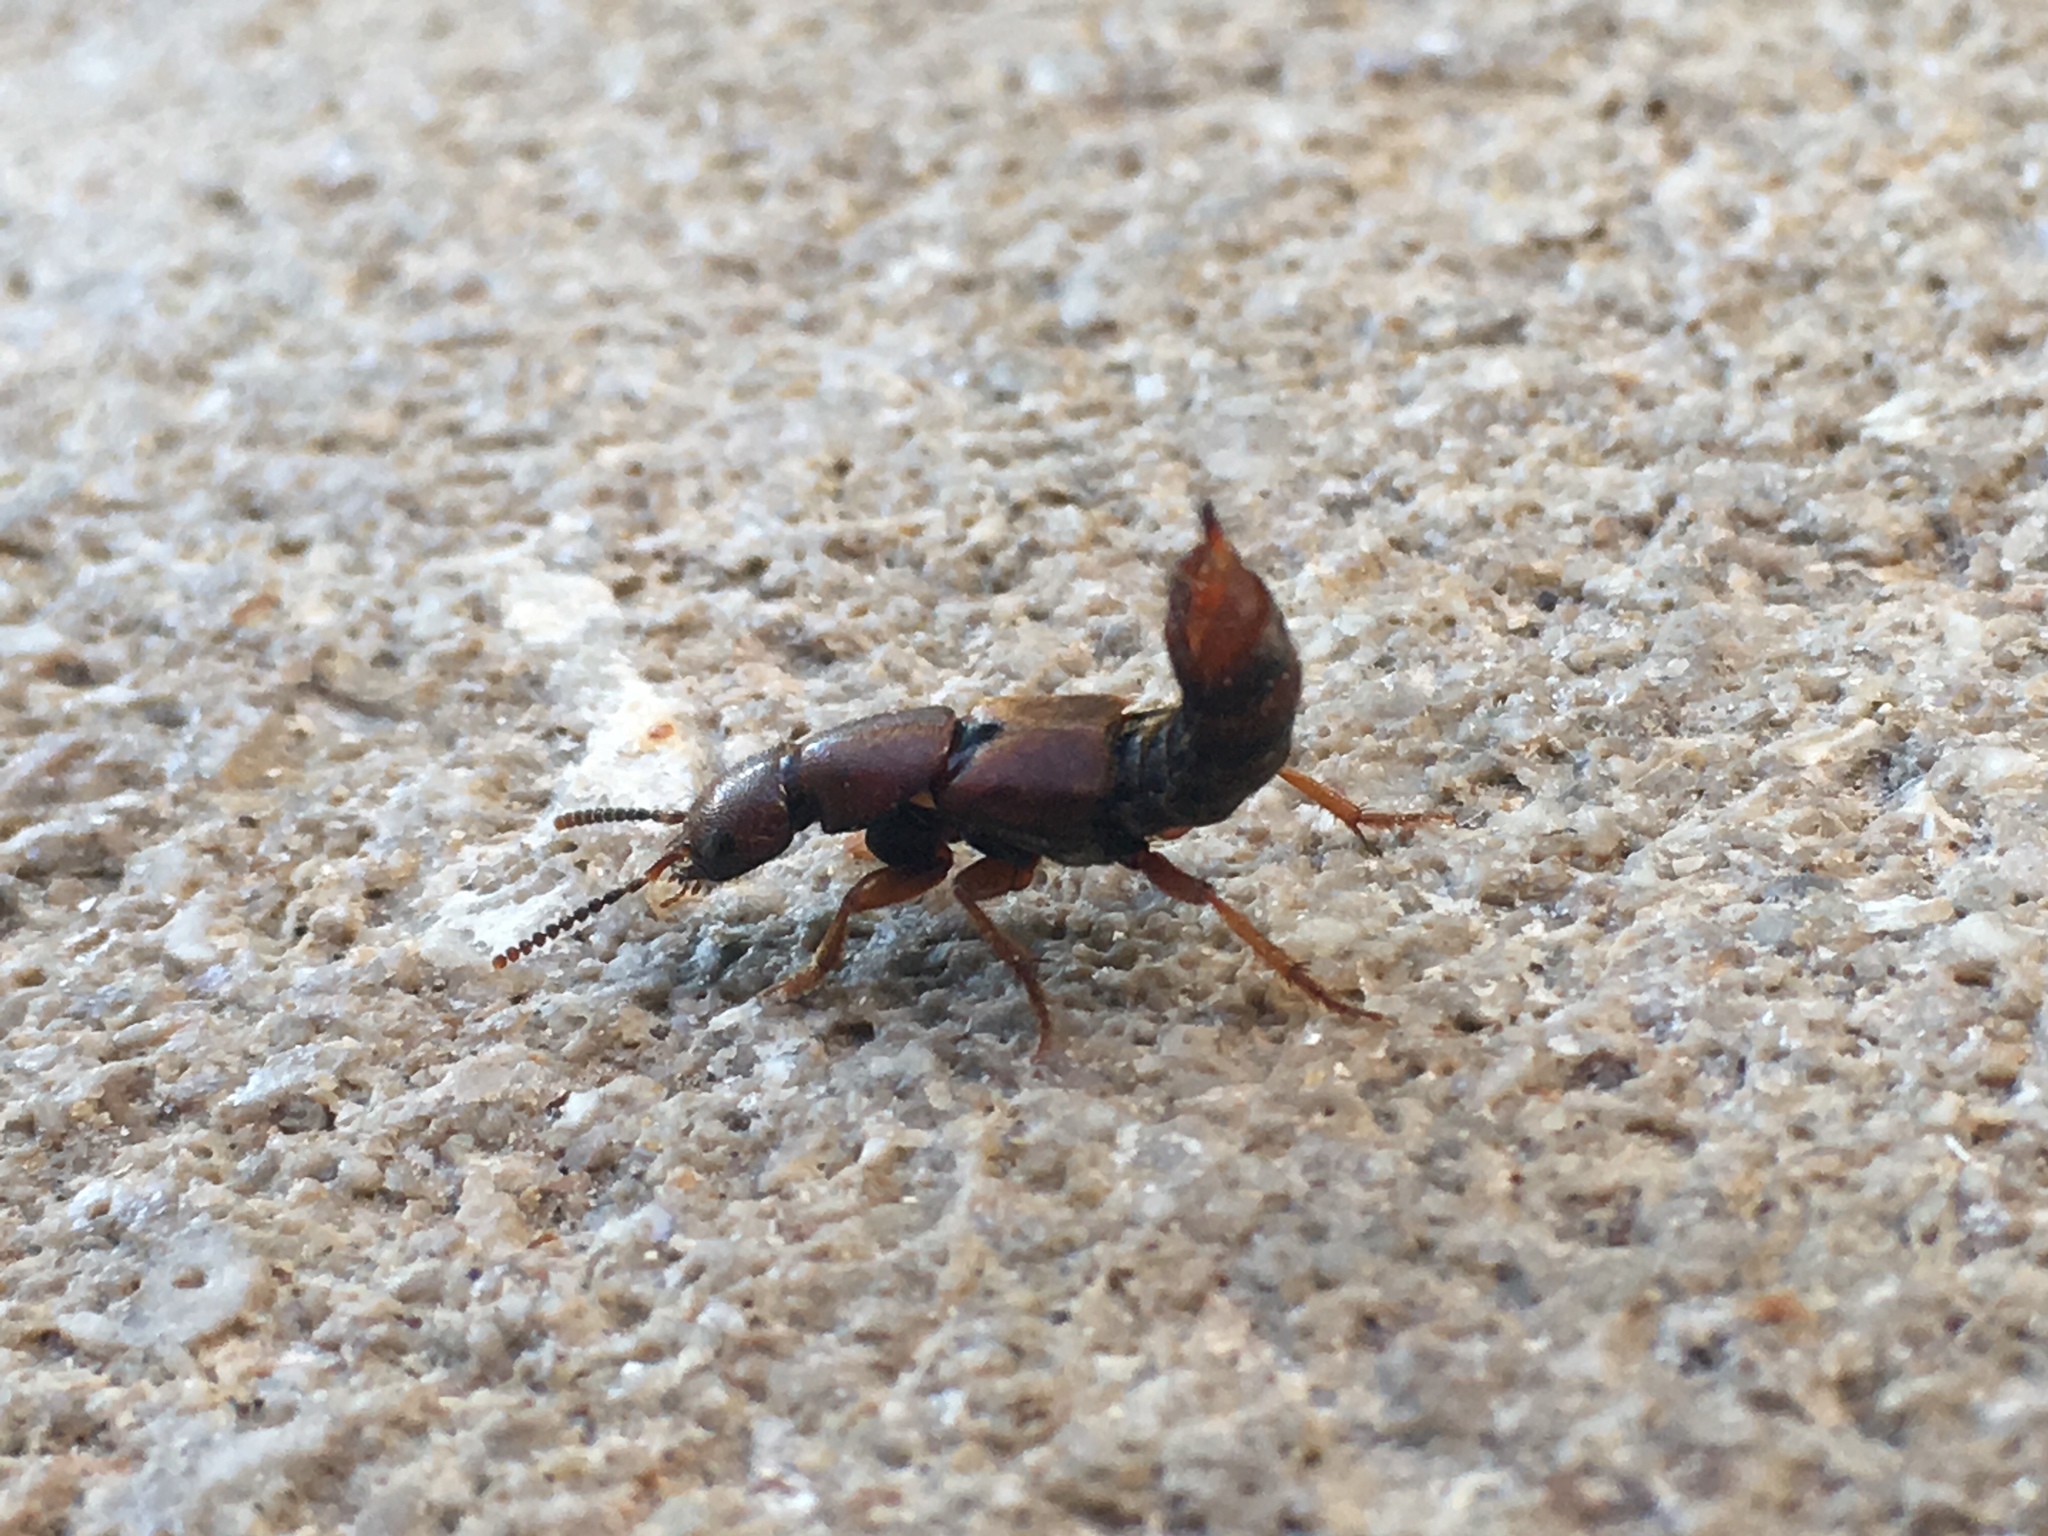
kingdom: Animalia
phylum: Arthropoda
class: Insecta
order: Coleoptera
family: Staphylinidae
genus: Platydracus
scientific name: Platydracus cinnamopterus
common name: Cinnamon rove beetle
